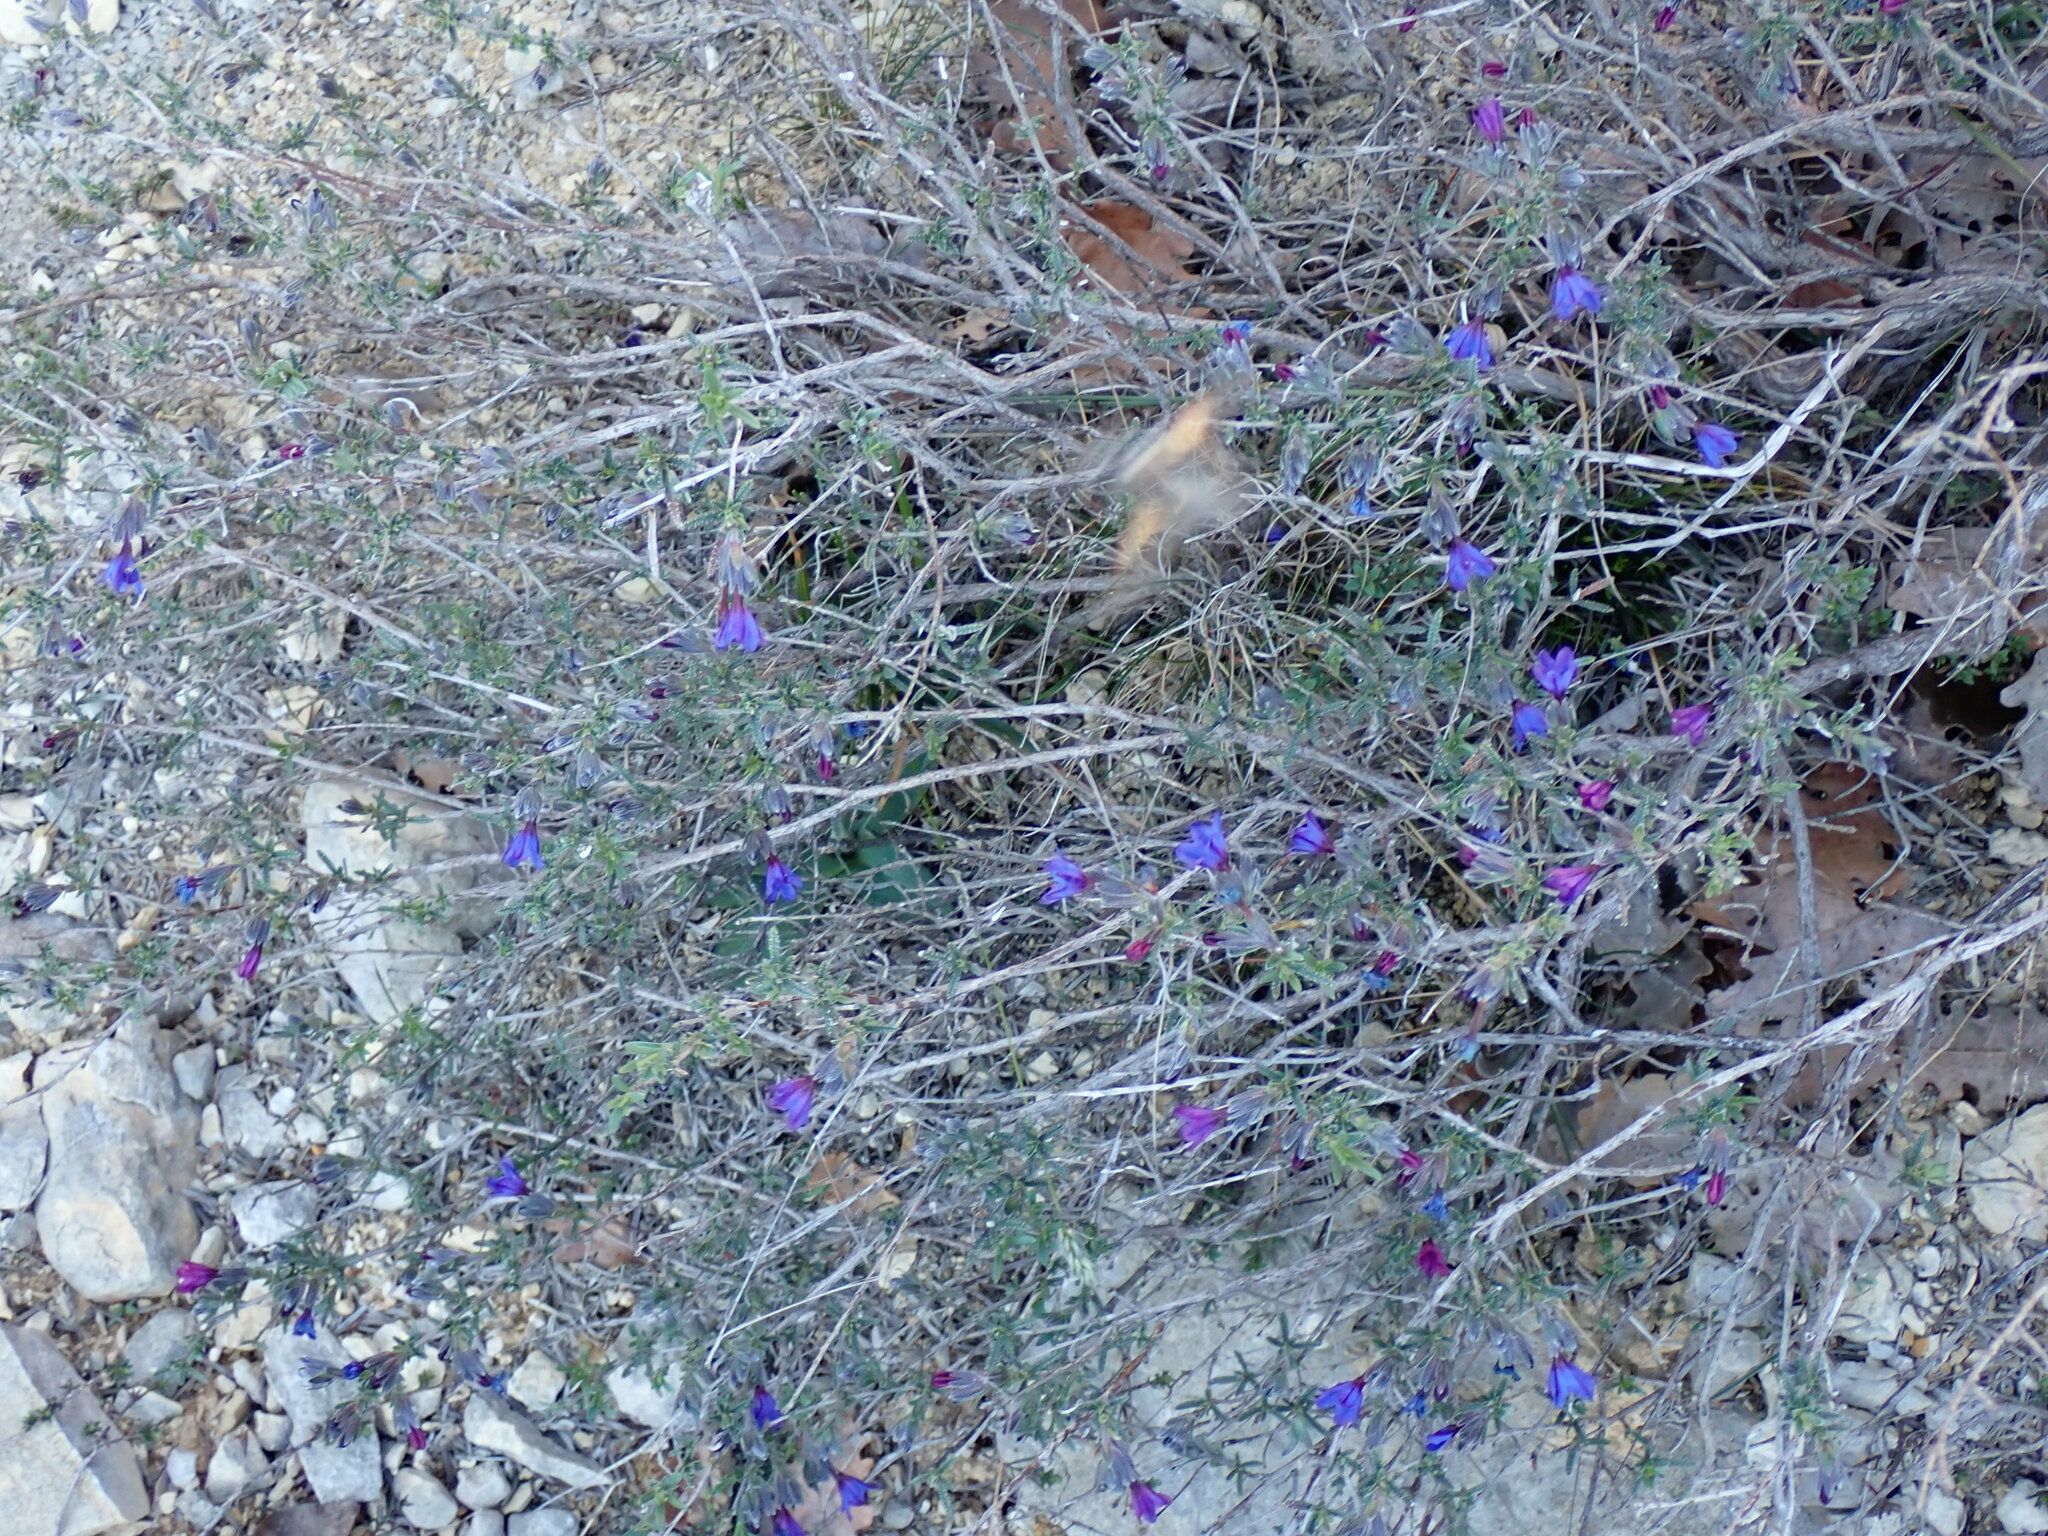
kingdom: Plantae
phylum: Tracheophyta
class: Magnoliopsida
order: Boraginales
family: Boraginaceae
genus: Lithodora
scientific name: Lithodora fruticosa
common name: Shrubby gromwell
